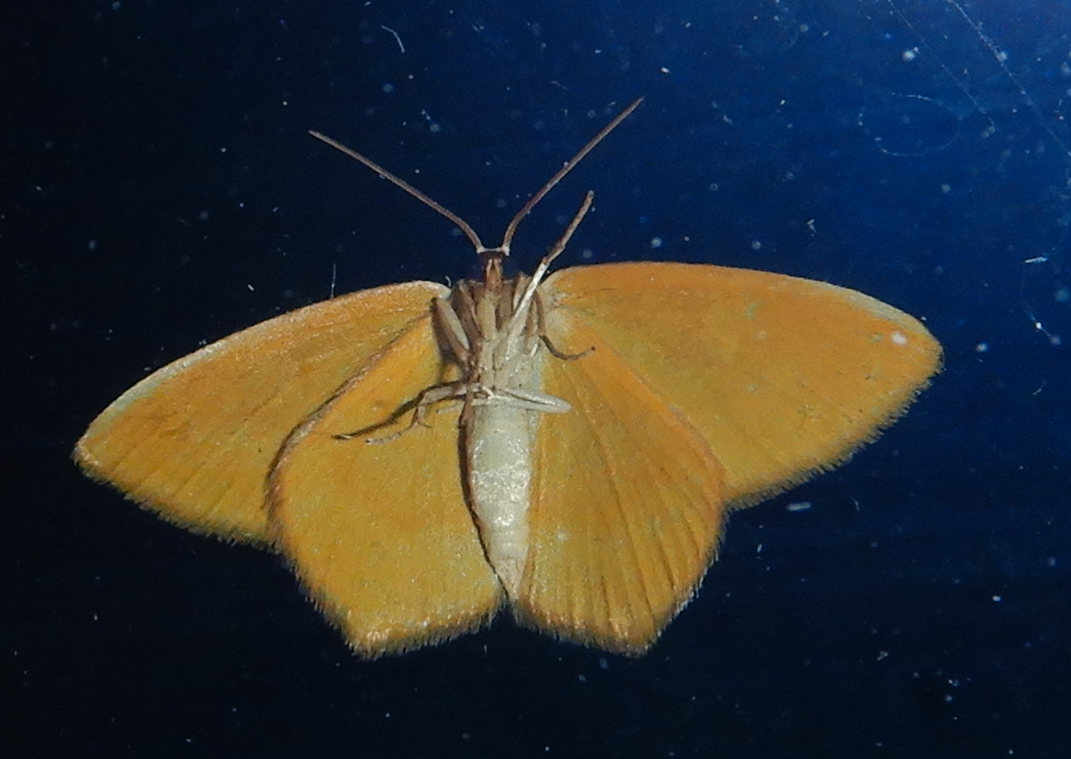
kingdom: Animalia
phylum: Arthropoda
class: Insecta
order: Lepidoptera
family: Geometridae
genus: Thalera
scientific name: Thalera pistasciaria
